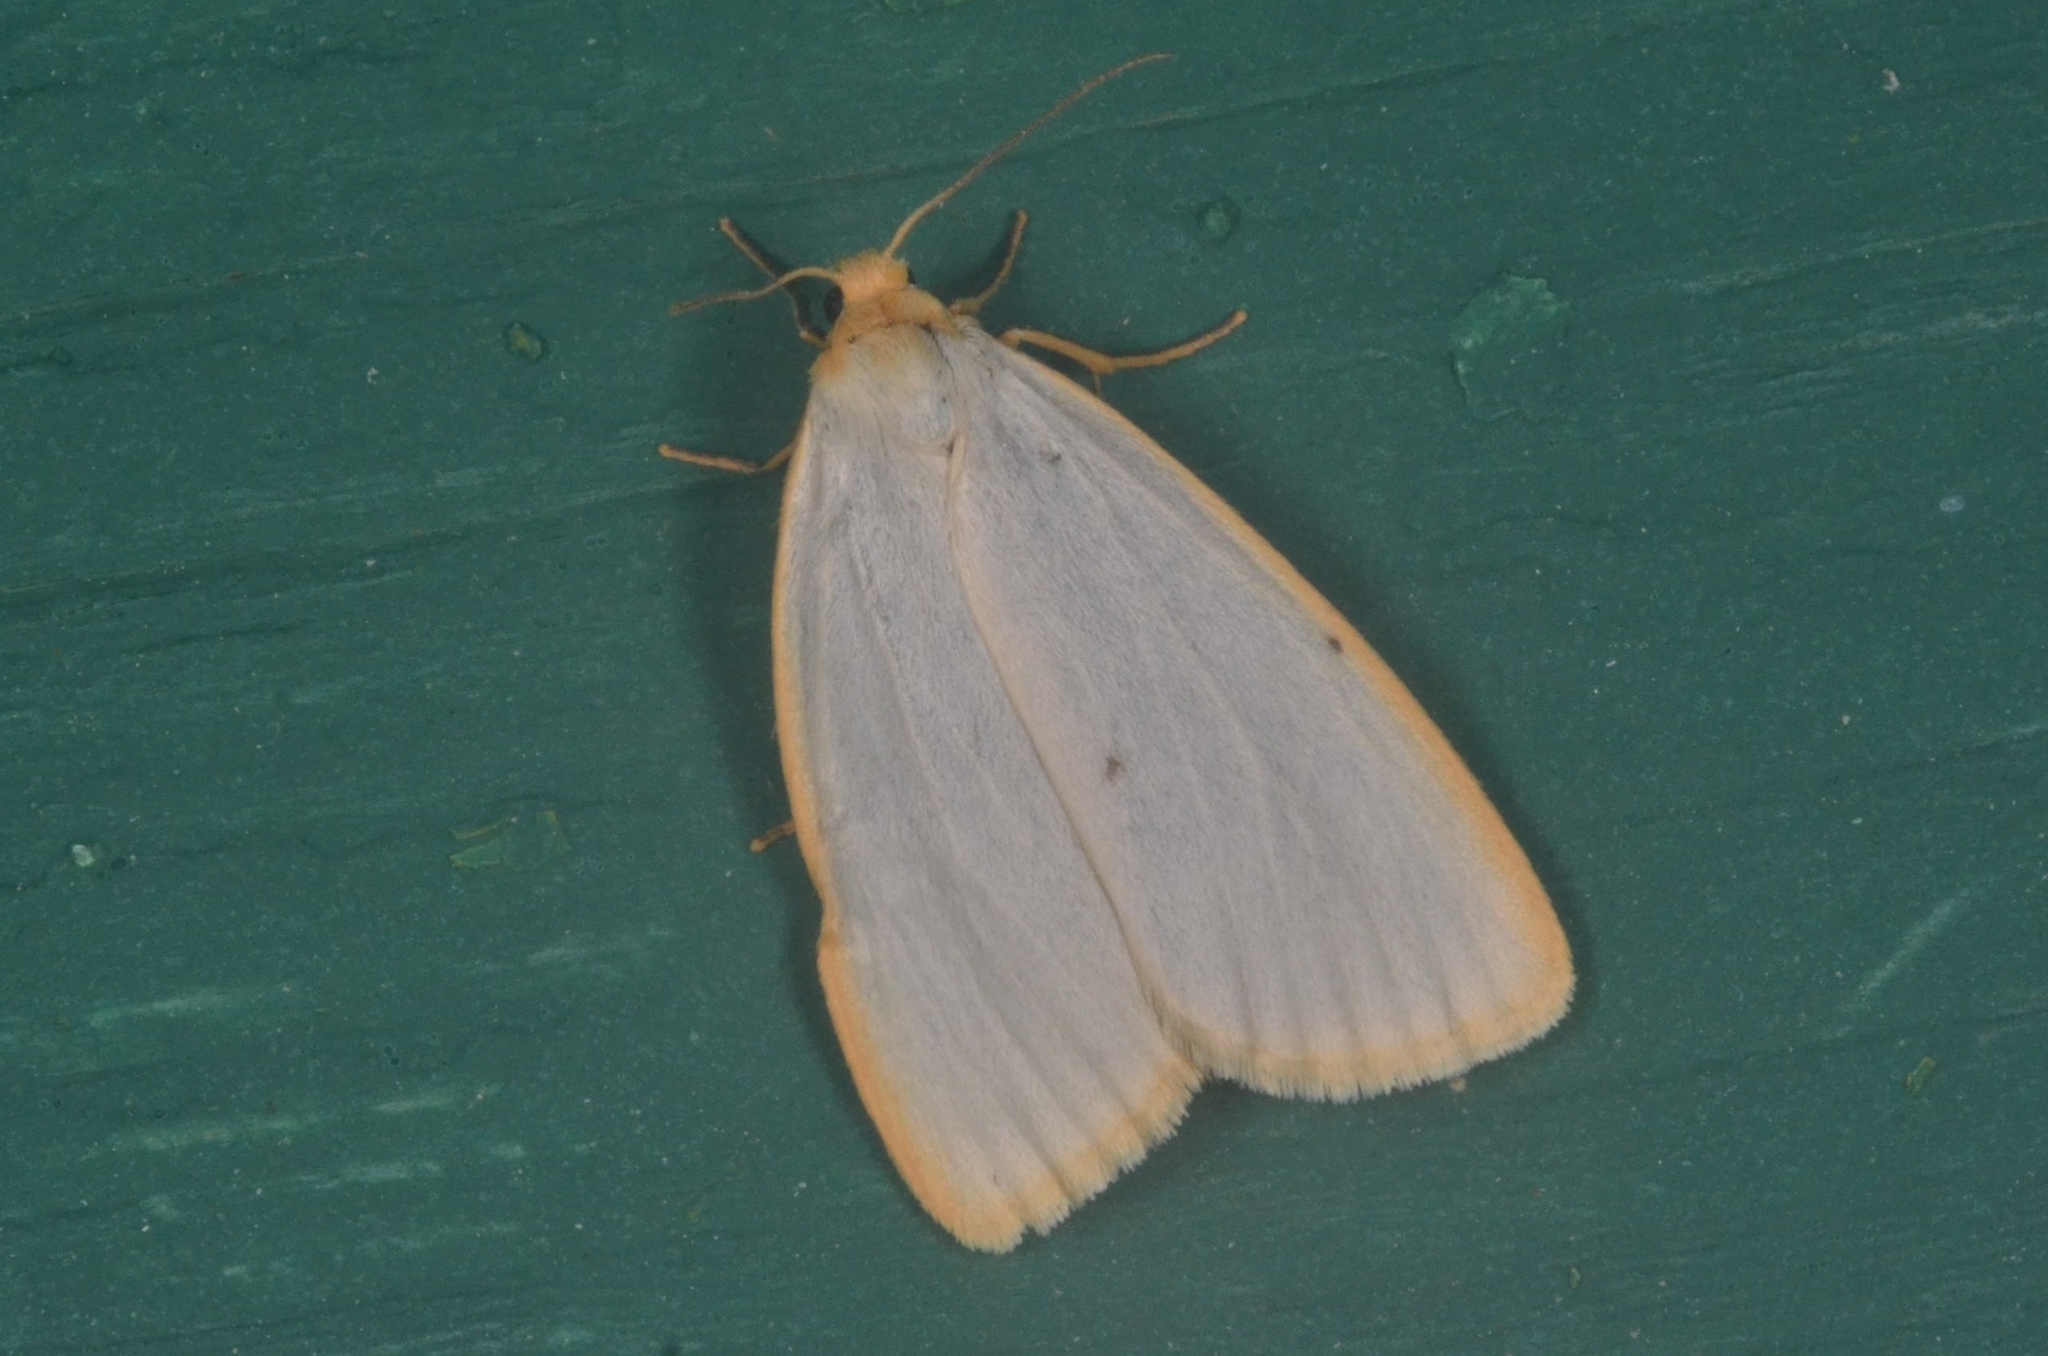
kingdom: Animalia
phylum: Arthropoda
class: Insecta
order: Lepidoptera
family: Erebidae
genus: Cybosia
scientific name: Cybosia mesomella
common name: Four-dotted footman
